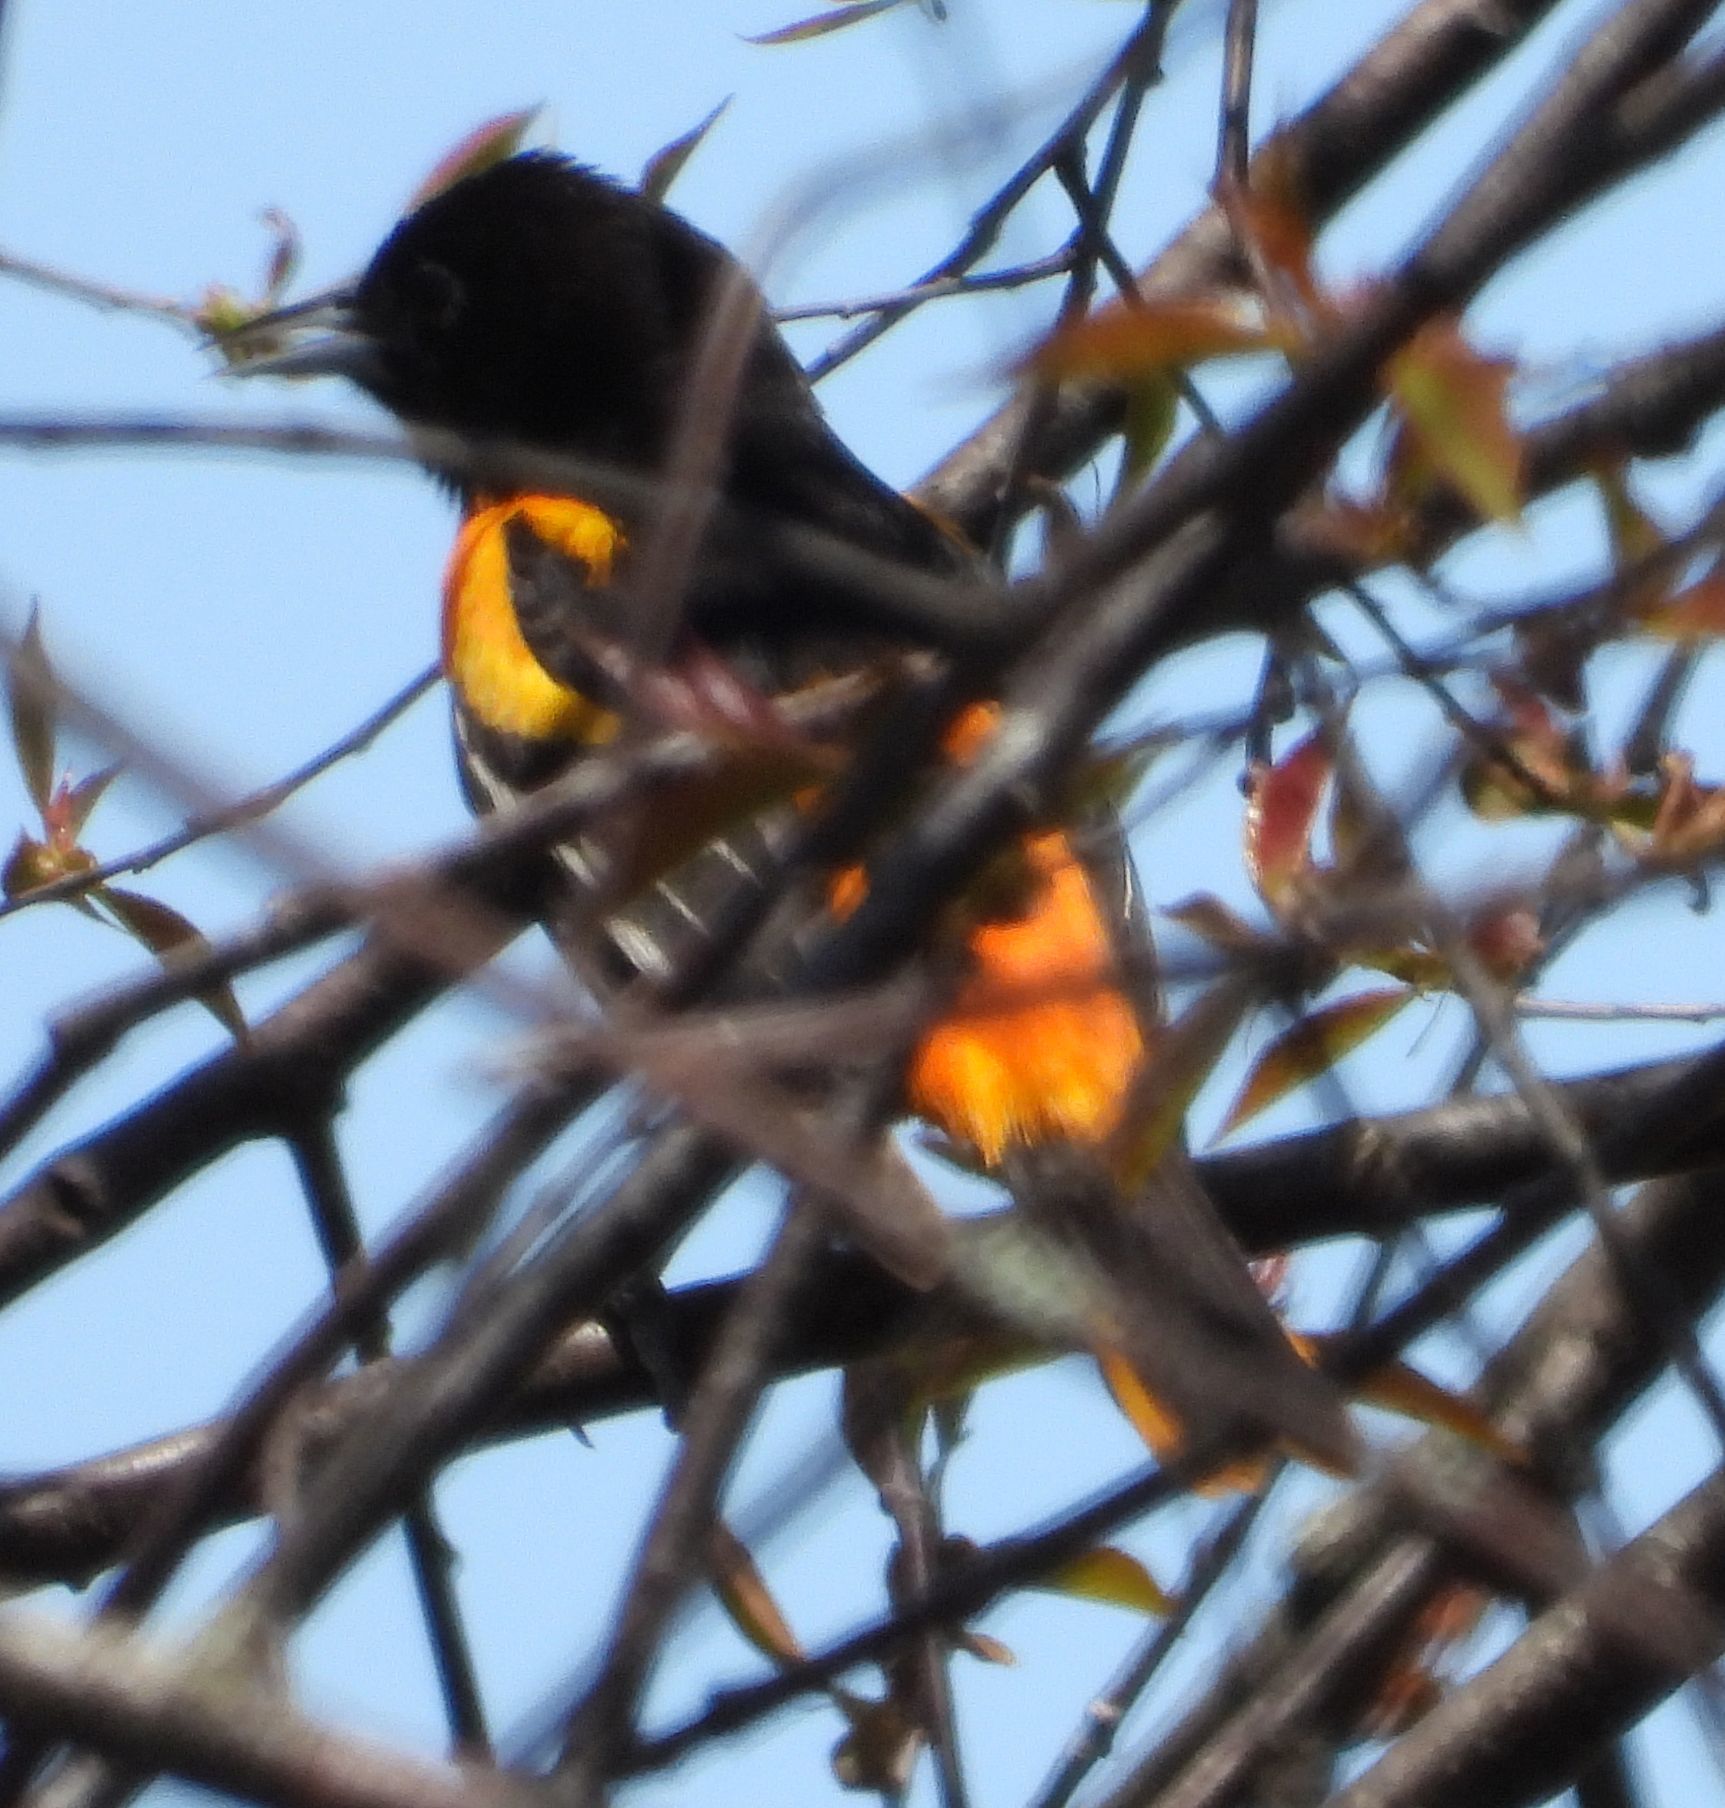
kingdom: Animalia
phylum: Chordata
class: Aves
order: Passeriformes
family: Icteridae
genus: Icterus
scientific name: Icterus galbula
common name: Baltimore oriole
